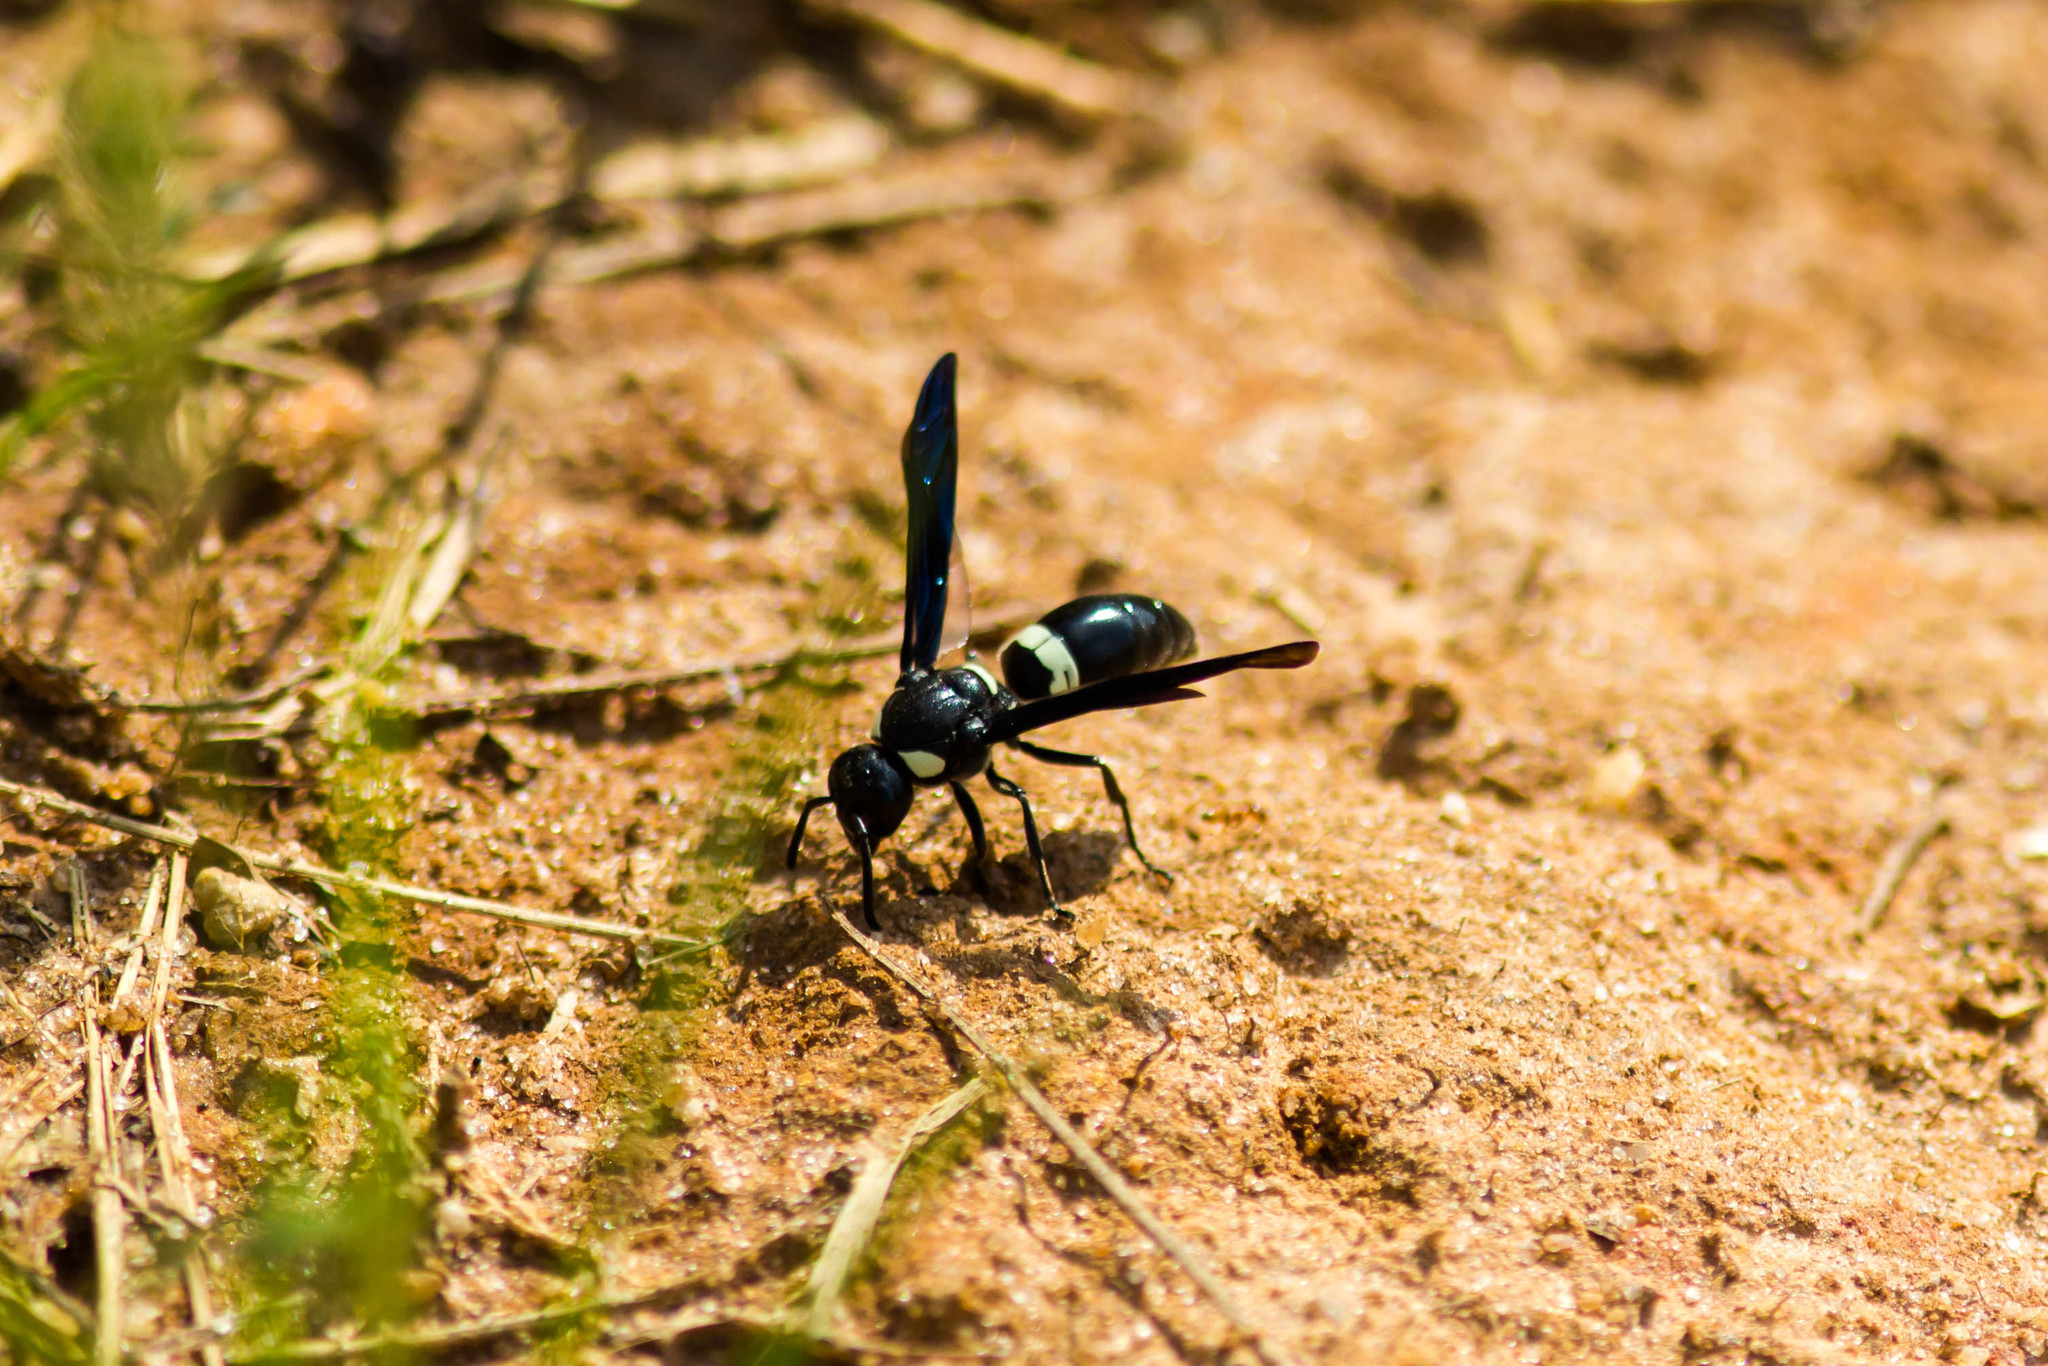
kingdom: Animalia
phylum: Arthropoda
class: Insecta
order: Hymenoptera
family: Eumenidae
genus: Monobia
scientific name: Monobia quadridens
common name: Four-toothed mason wasp
